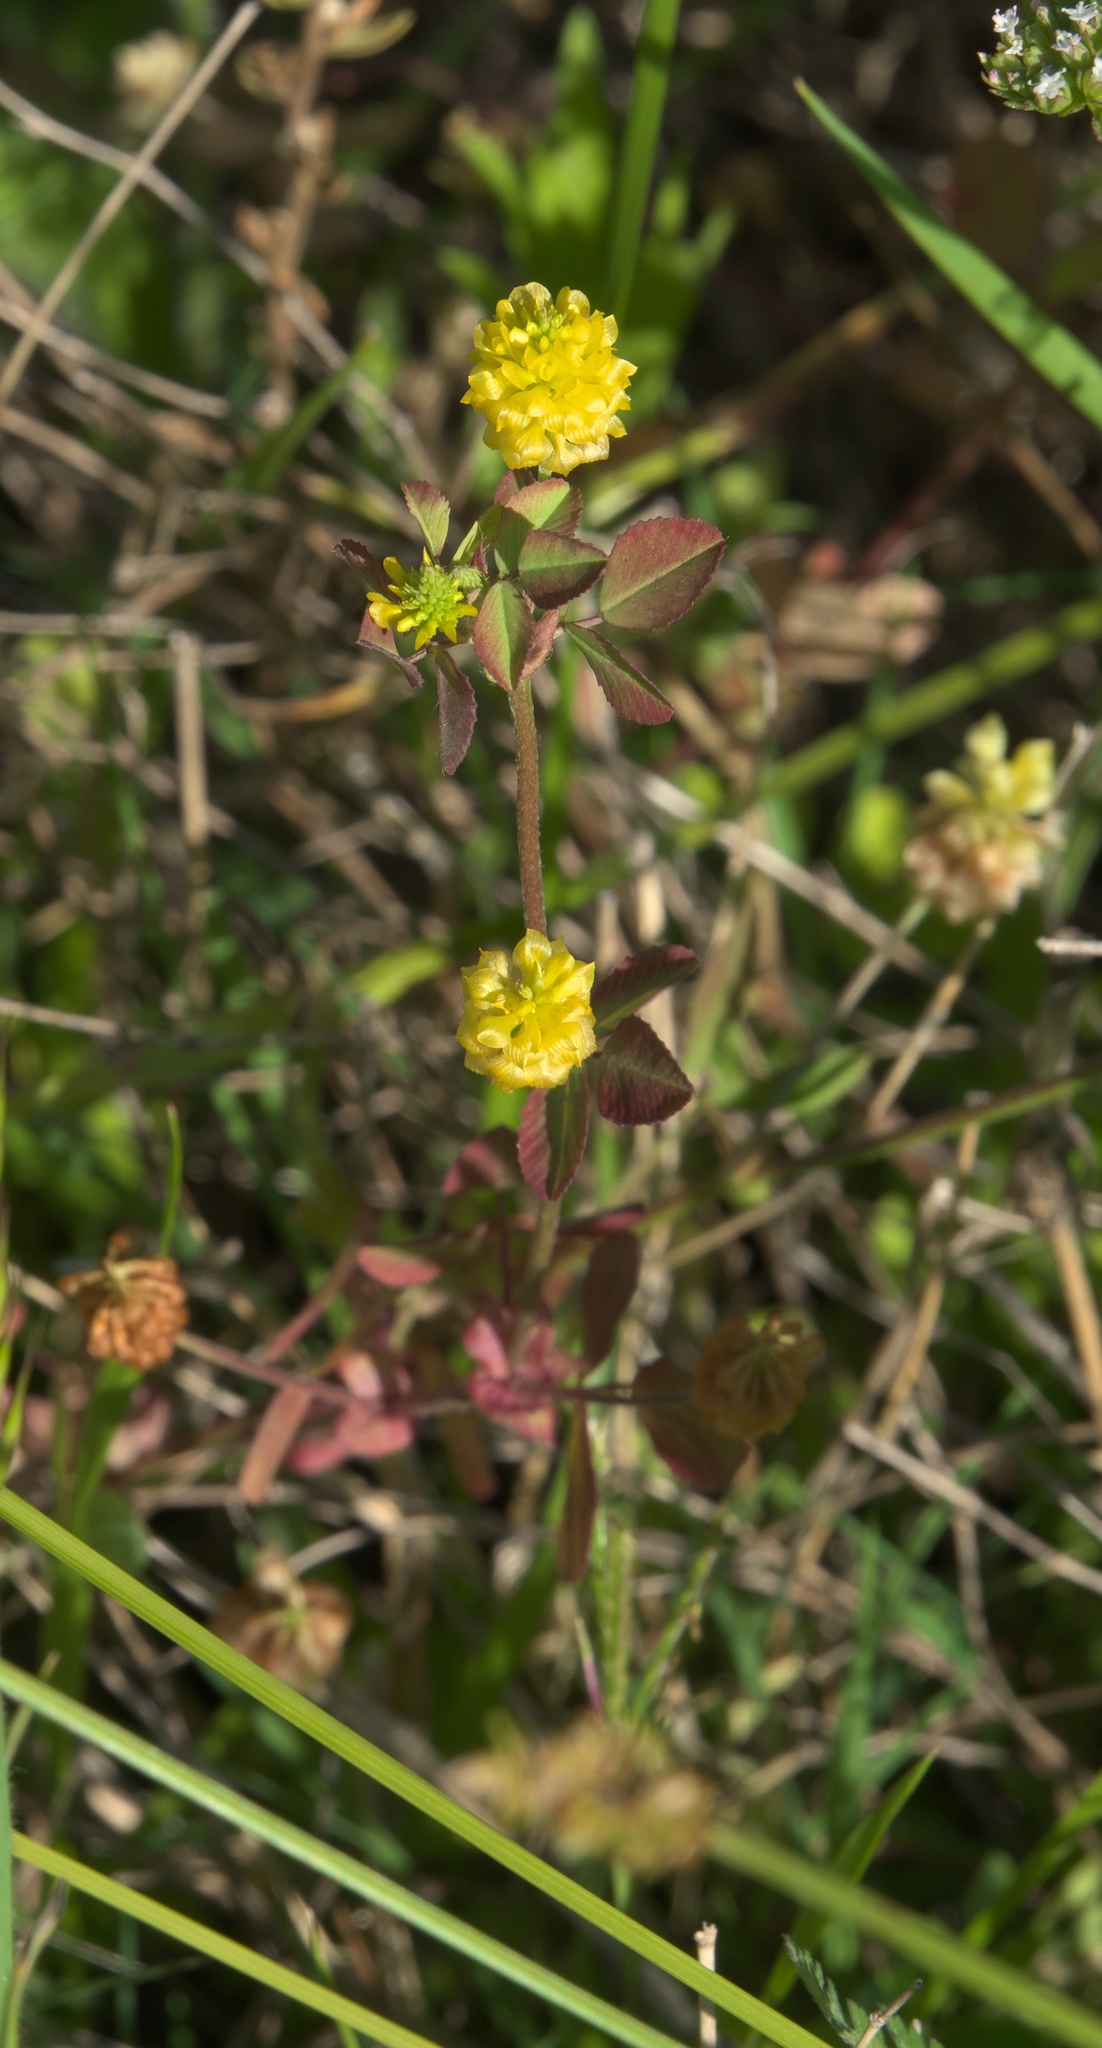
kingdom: Plantae
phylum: Tracheophyta
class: Magnoliopsida
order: Fabales
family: Fabaceae
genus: Trifolium
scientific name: Trifolium campestre
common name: Field clover
